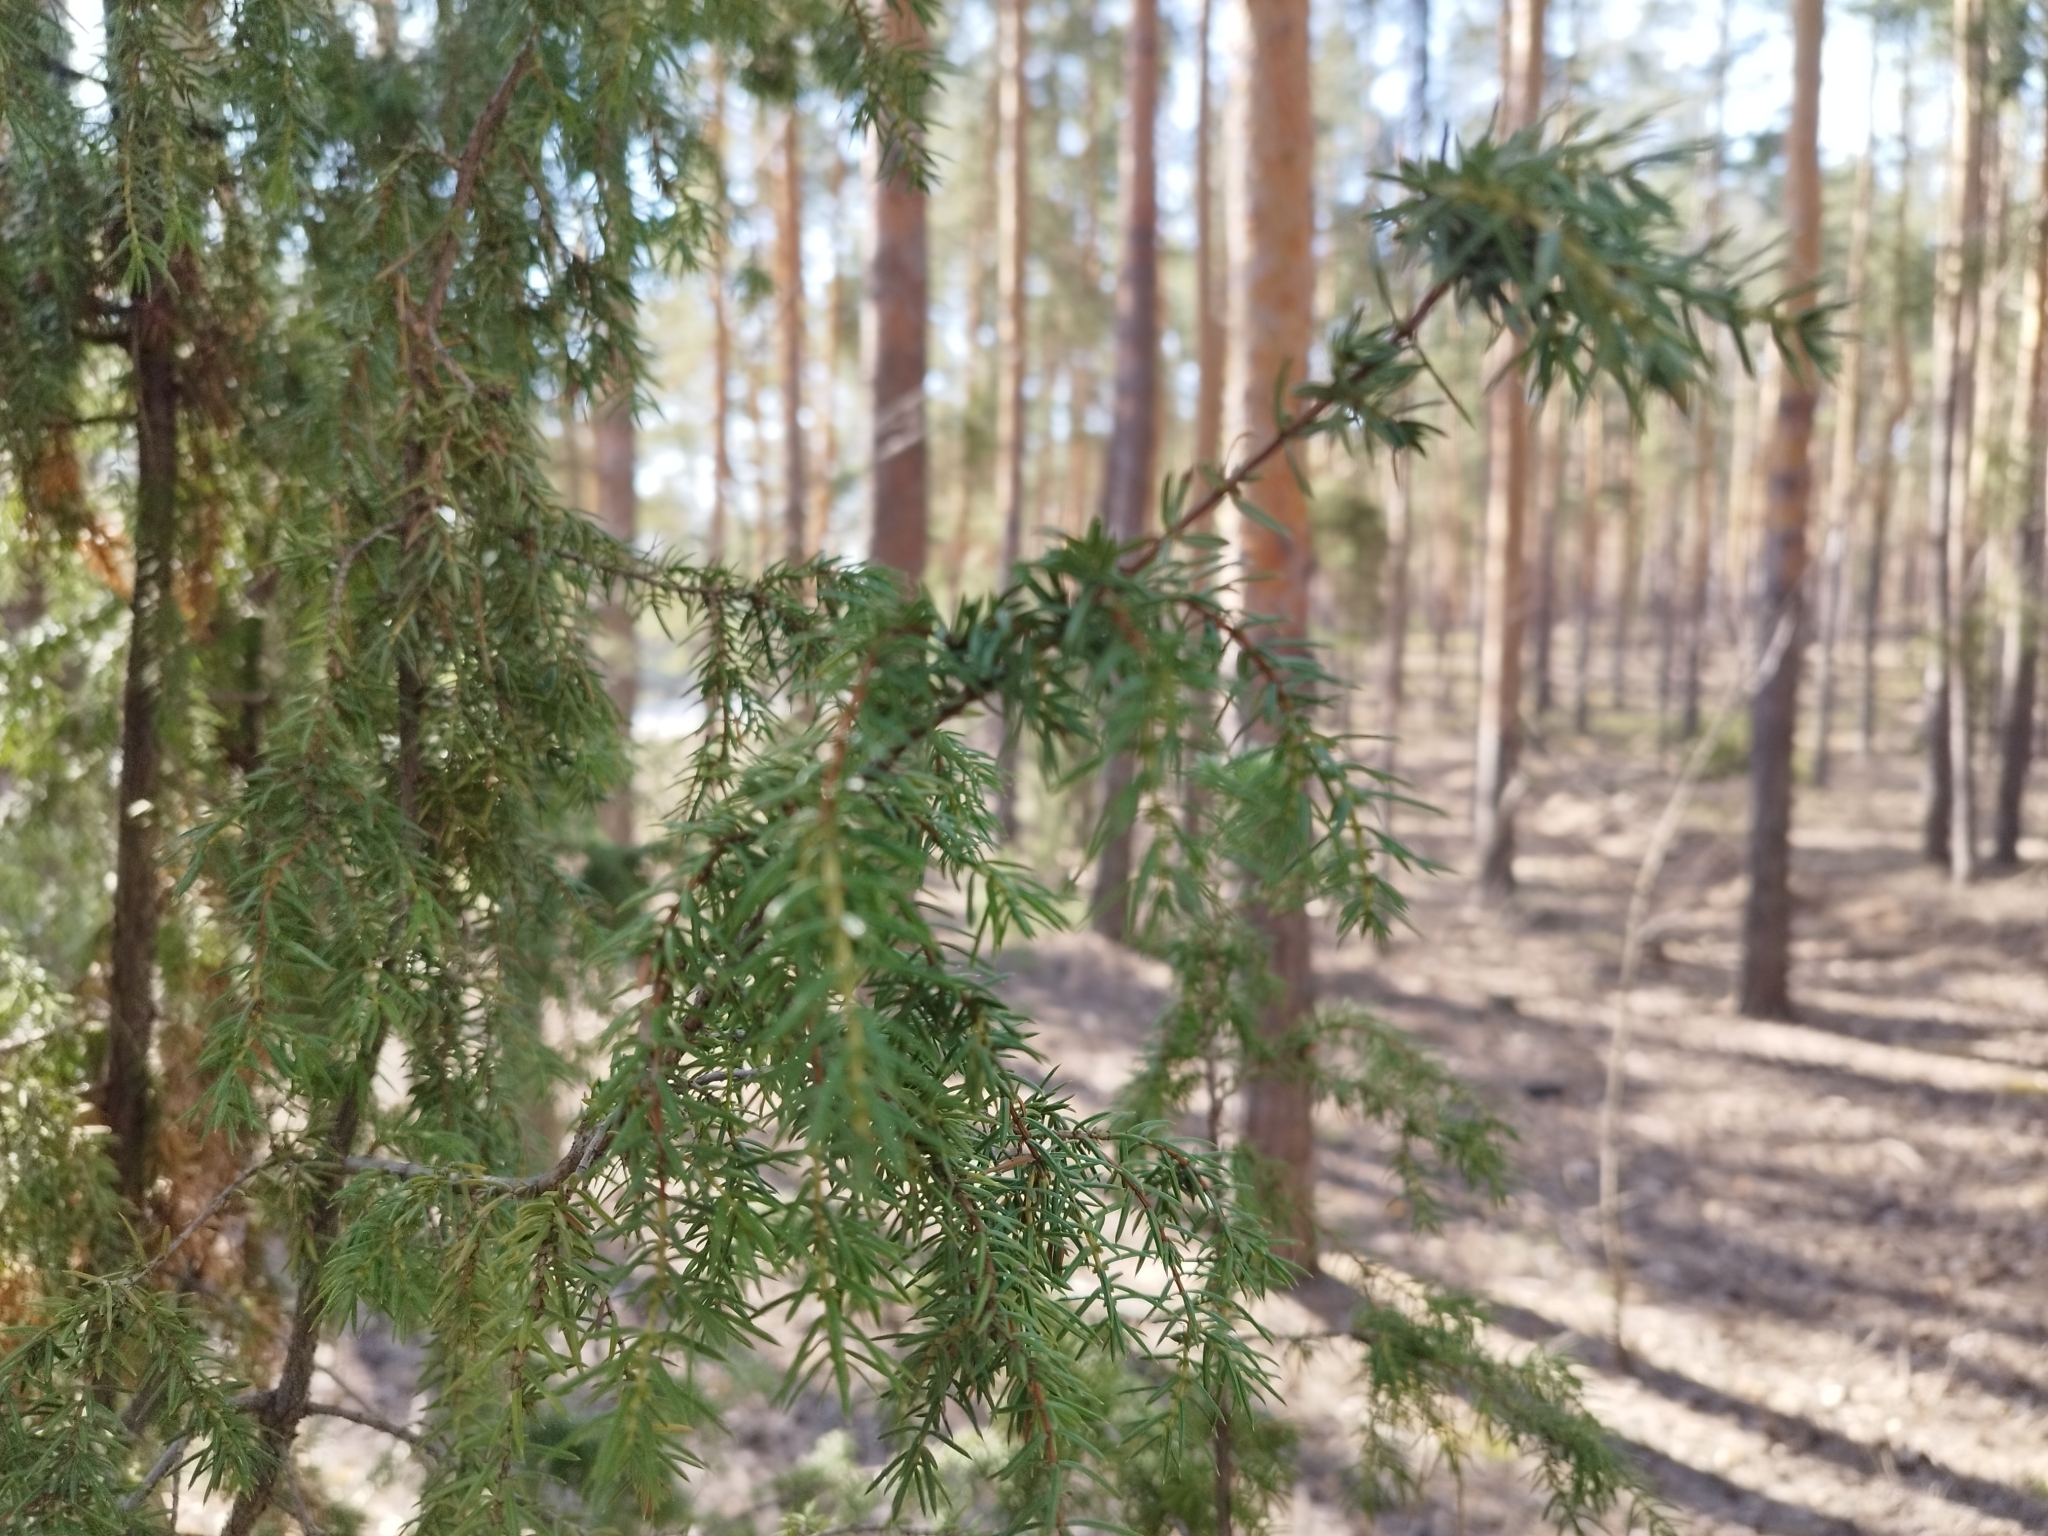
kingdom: Plantae
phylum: Tracheophyta
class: Pinopsida
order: Pinales
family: Cupressaceae
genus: Juniperus
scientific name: Juniperus communis
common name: Common juniper
